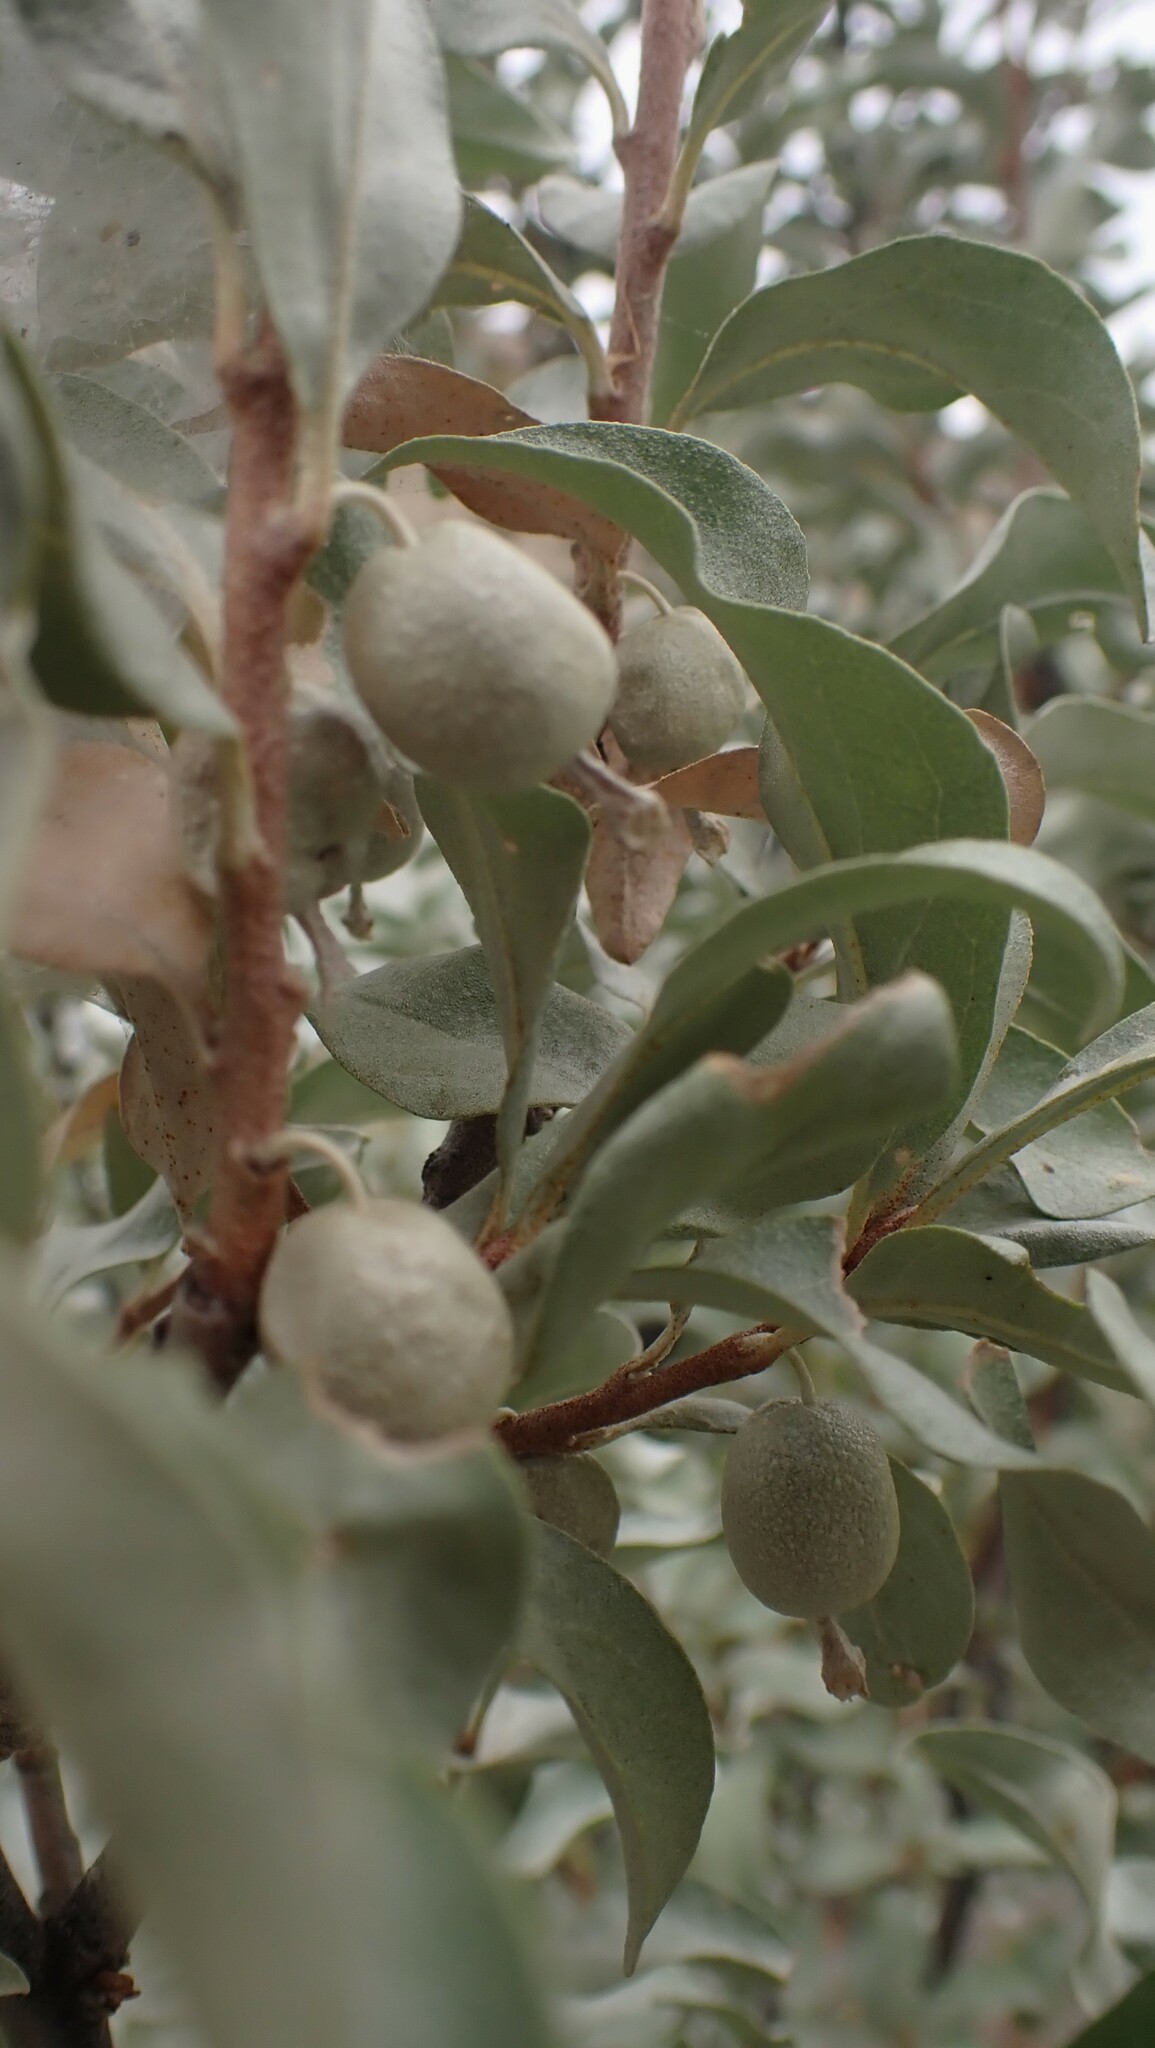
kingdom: Plantae
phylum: Tracheophyta
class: Magnoliopsida
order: Rosales
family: Elaeagnaceae
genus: Elaeagnus
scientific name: Elaeagnus commutata
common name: Silverberry
